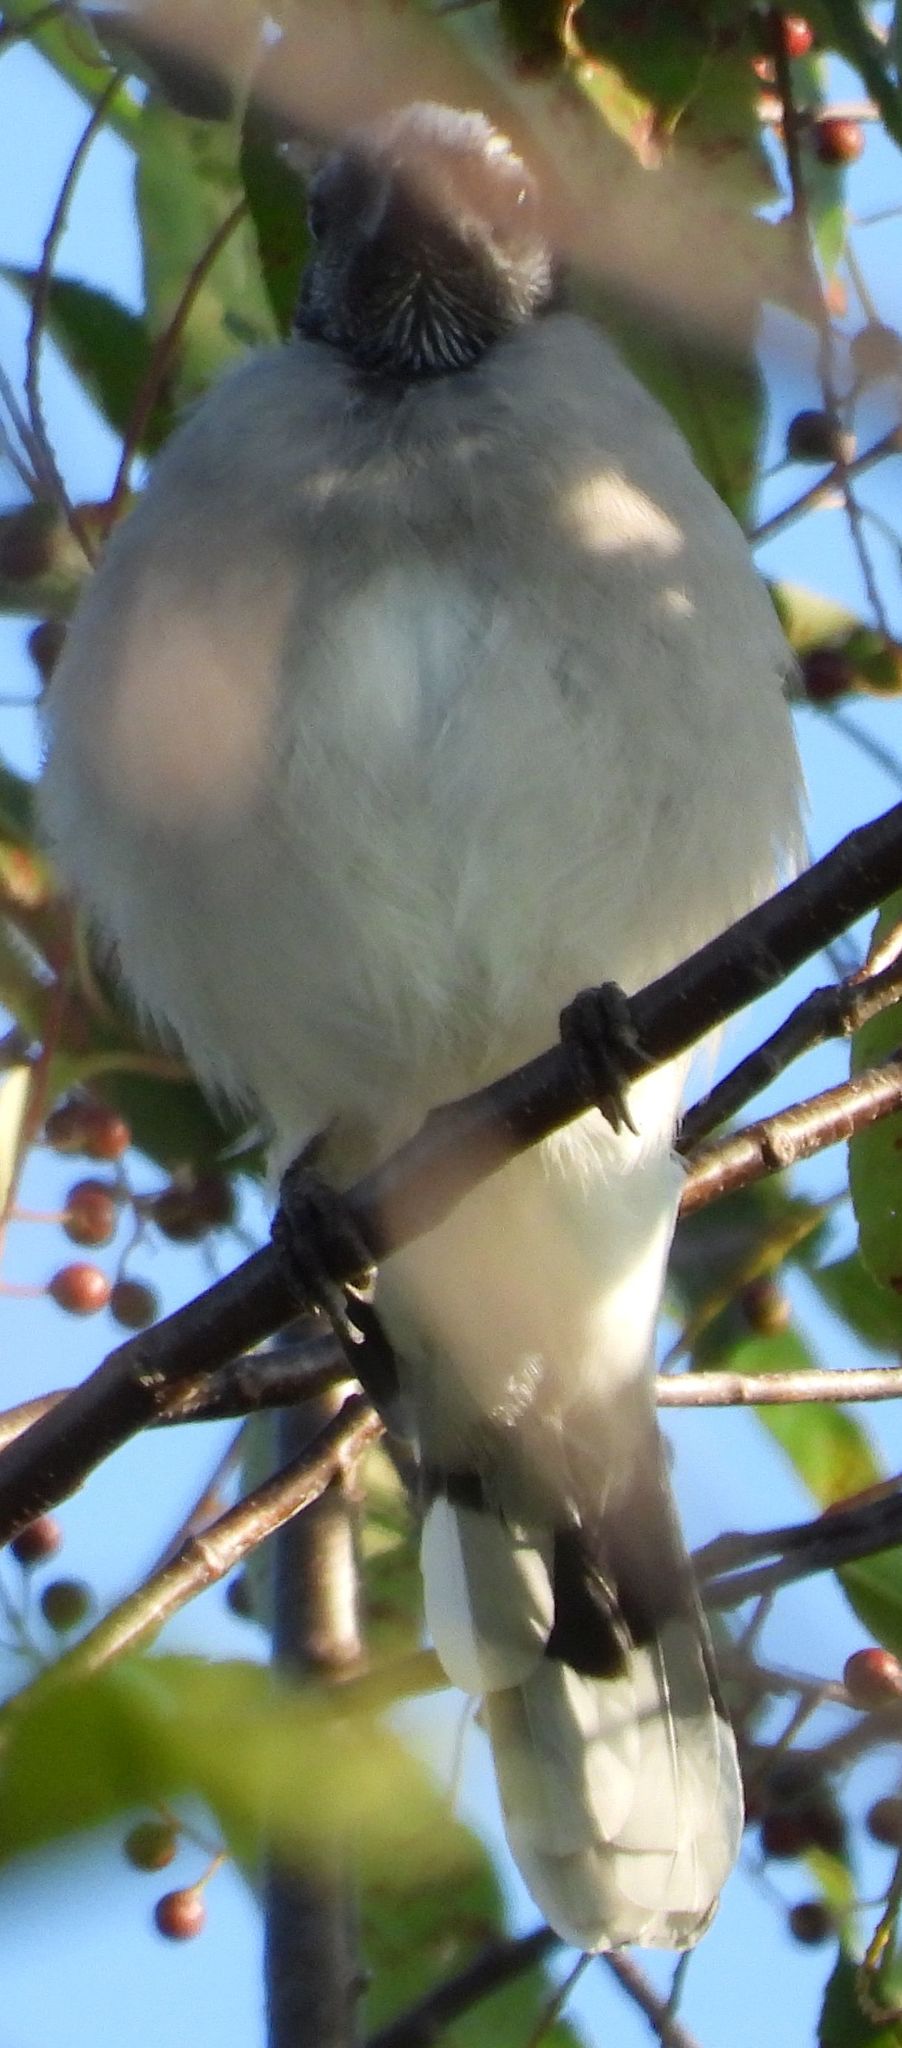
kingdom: Animalia
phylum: Chordata
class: Aves
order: Passeriformes
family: Corvidae
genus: Cyanocitta
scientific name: Cyanocitta cristata
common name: Blue jay
